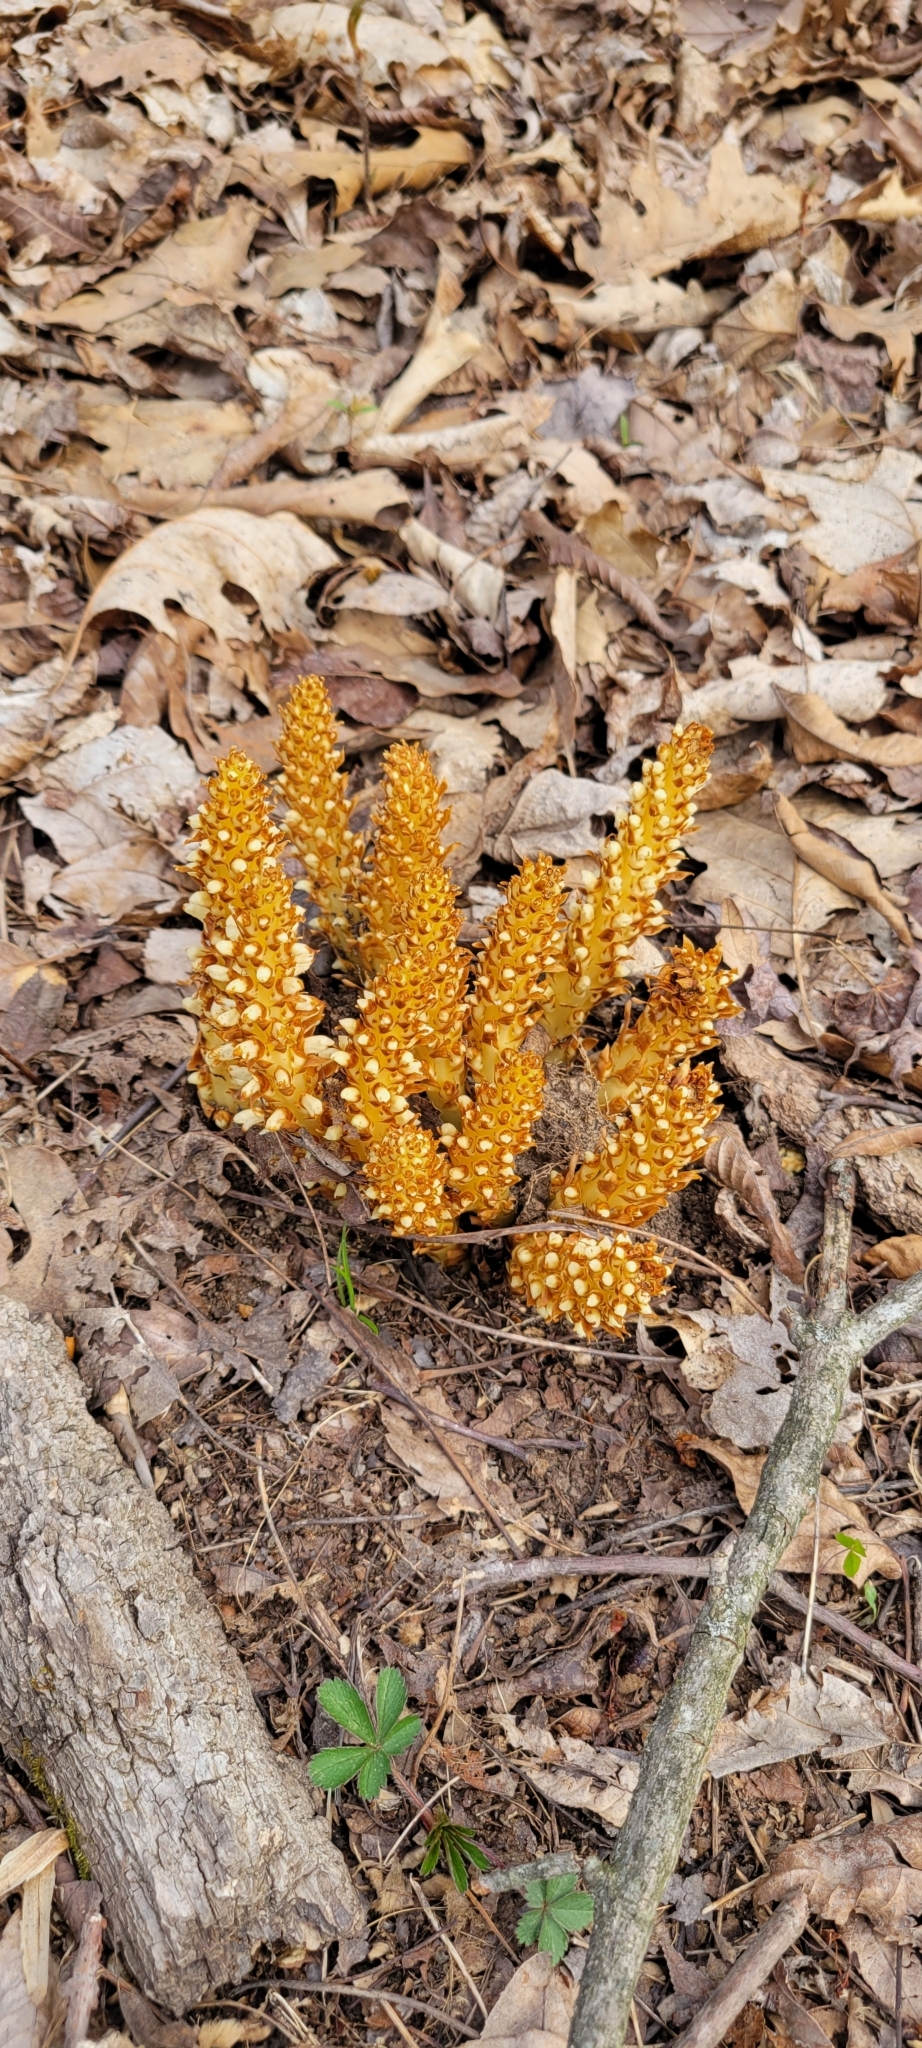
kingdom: Plantae
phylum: Tracheophyta
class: Magnoliopsida
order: Lamiales
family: Orobanchaceae
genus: Conopholis
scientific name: Conopholis americana
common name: American cancer-root
